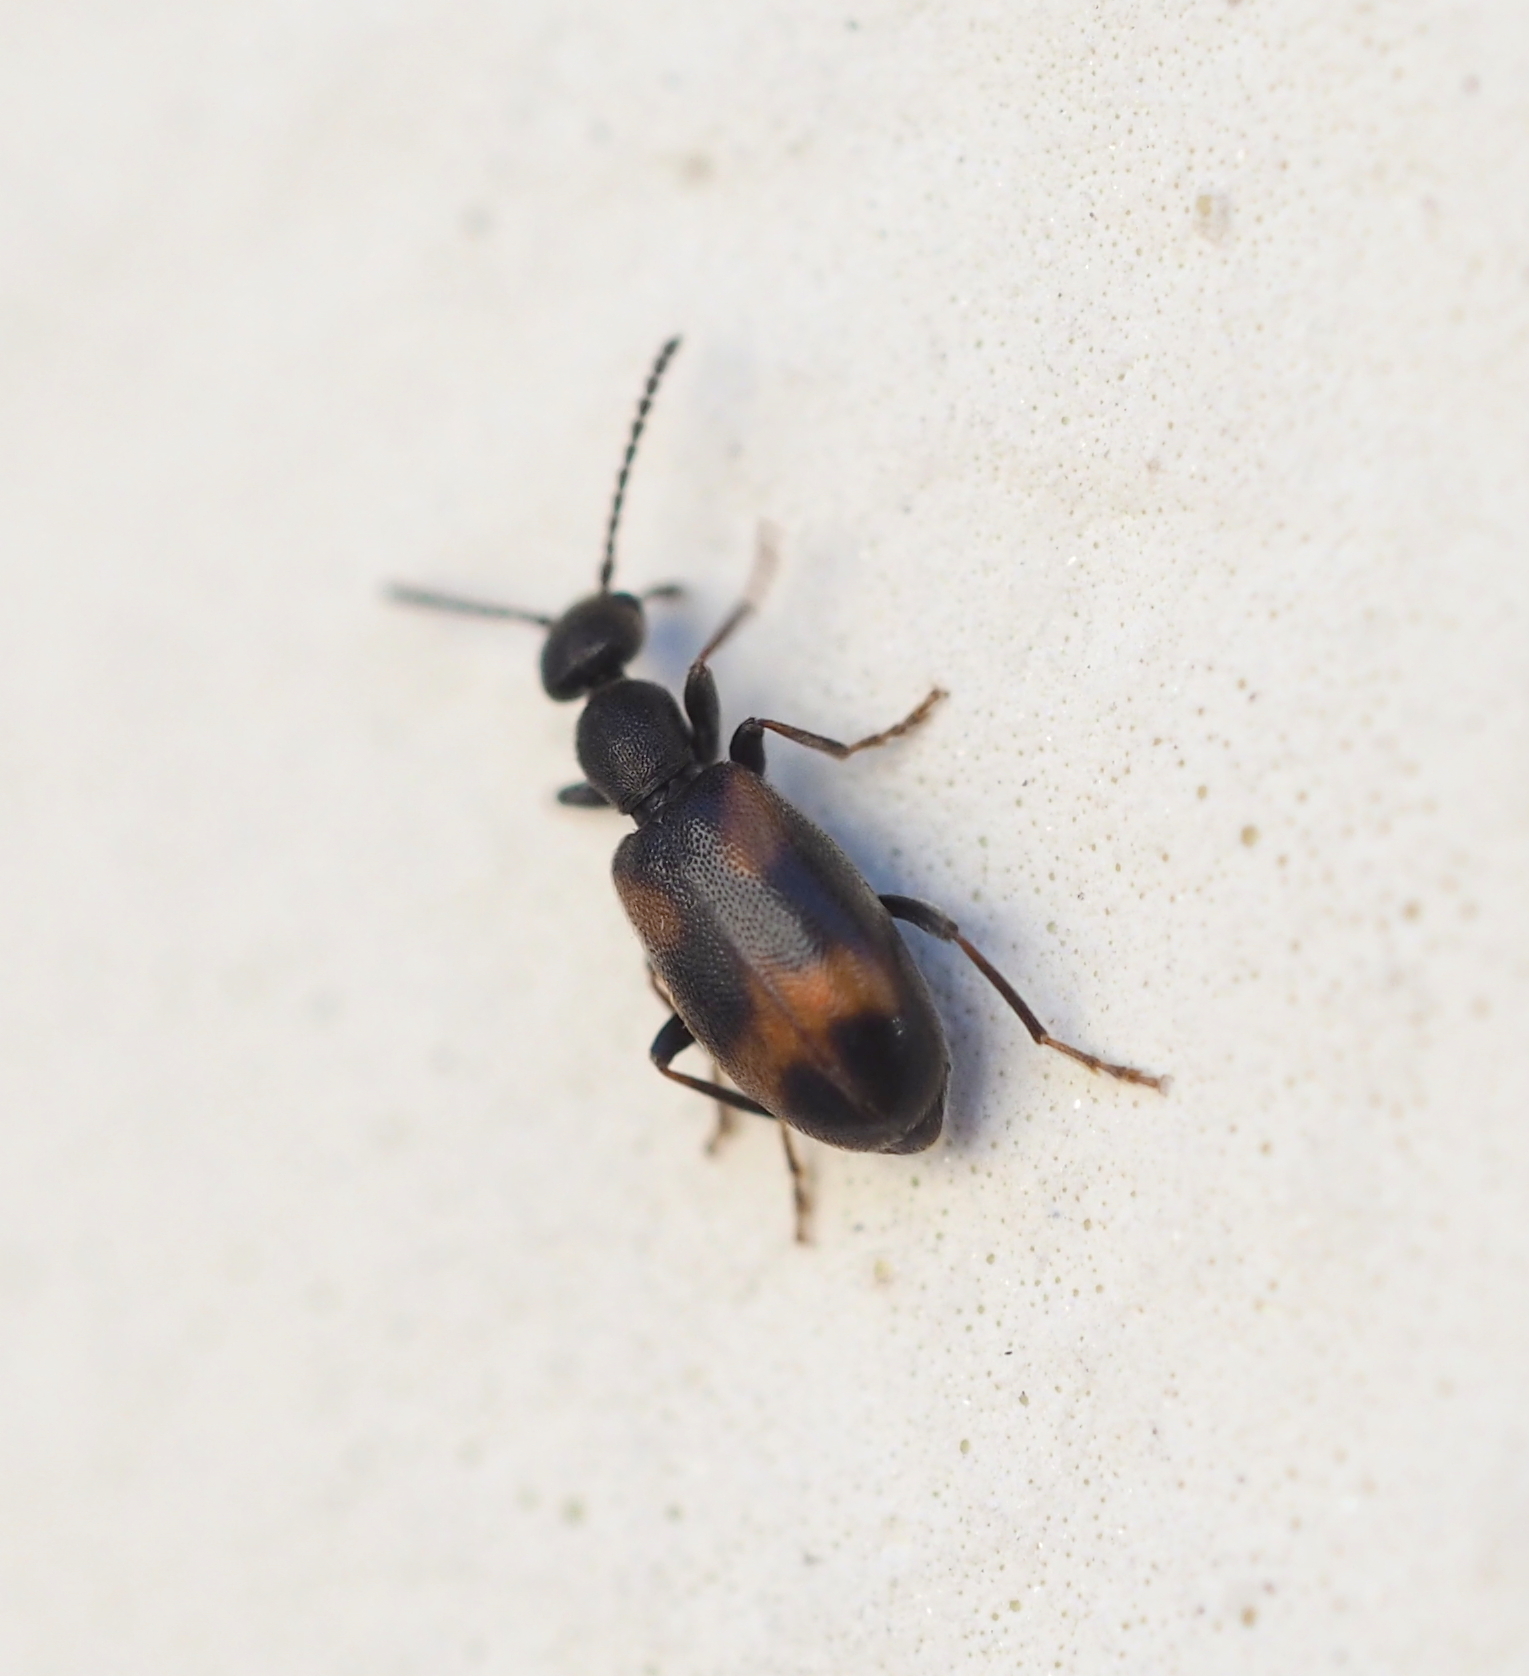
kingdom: Animalia
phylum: Arthropoda
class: Insecta
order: Coleoptera
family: Anthicidae
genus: Anthicus
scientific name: Anthicus antherinus
